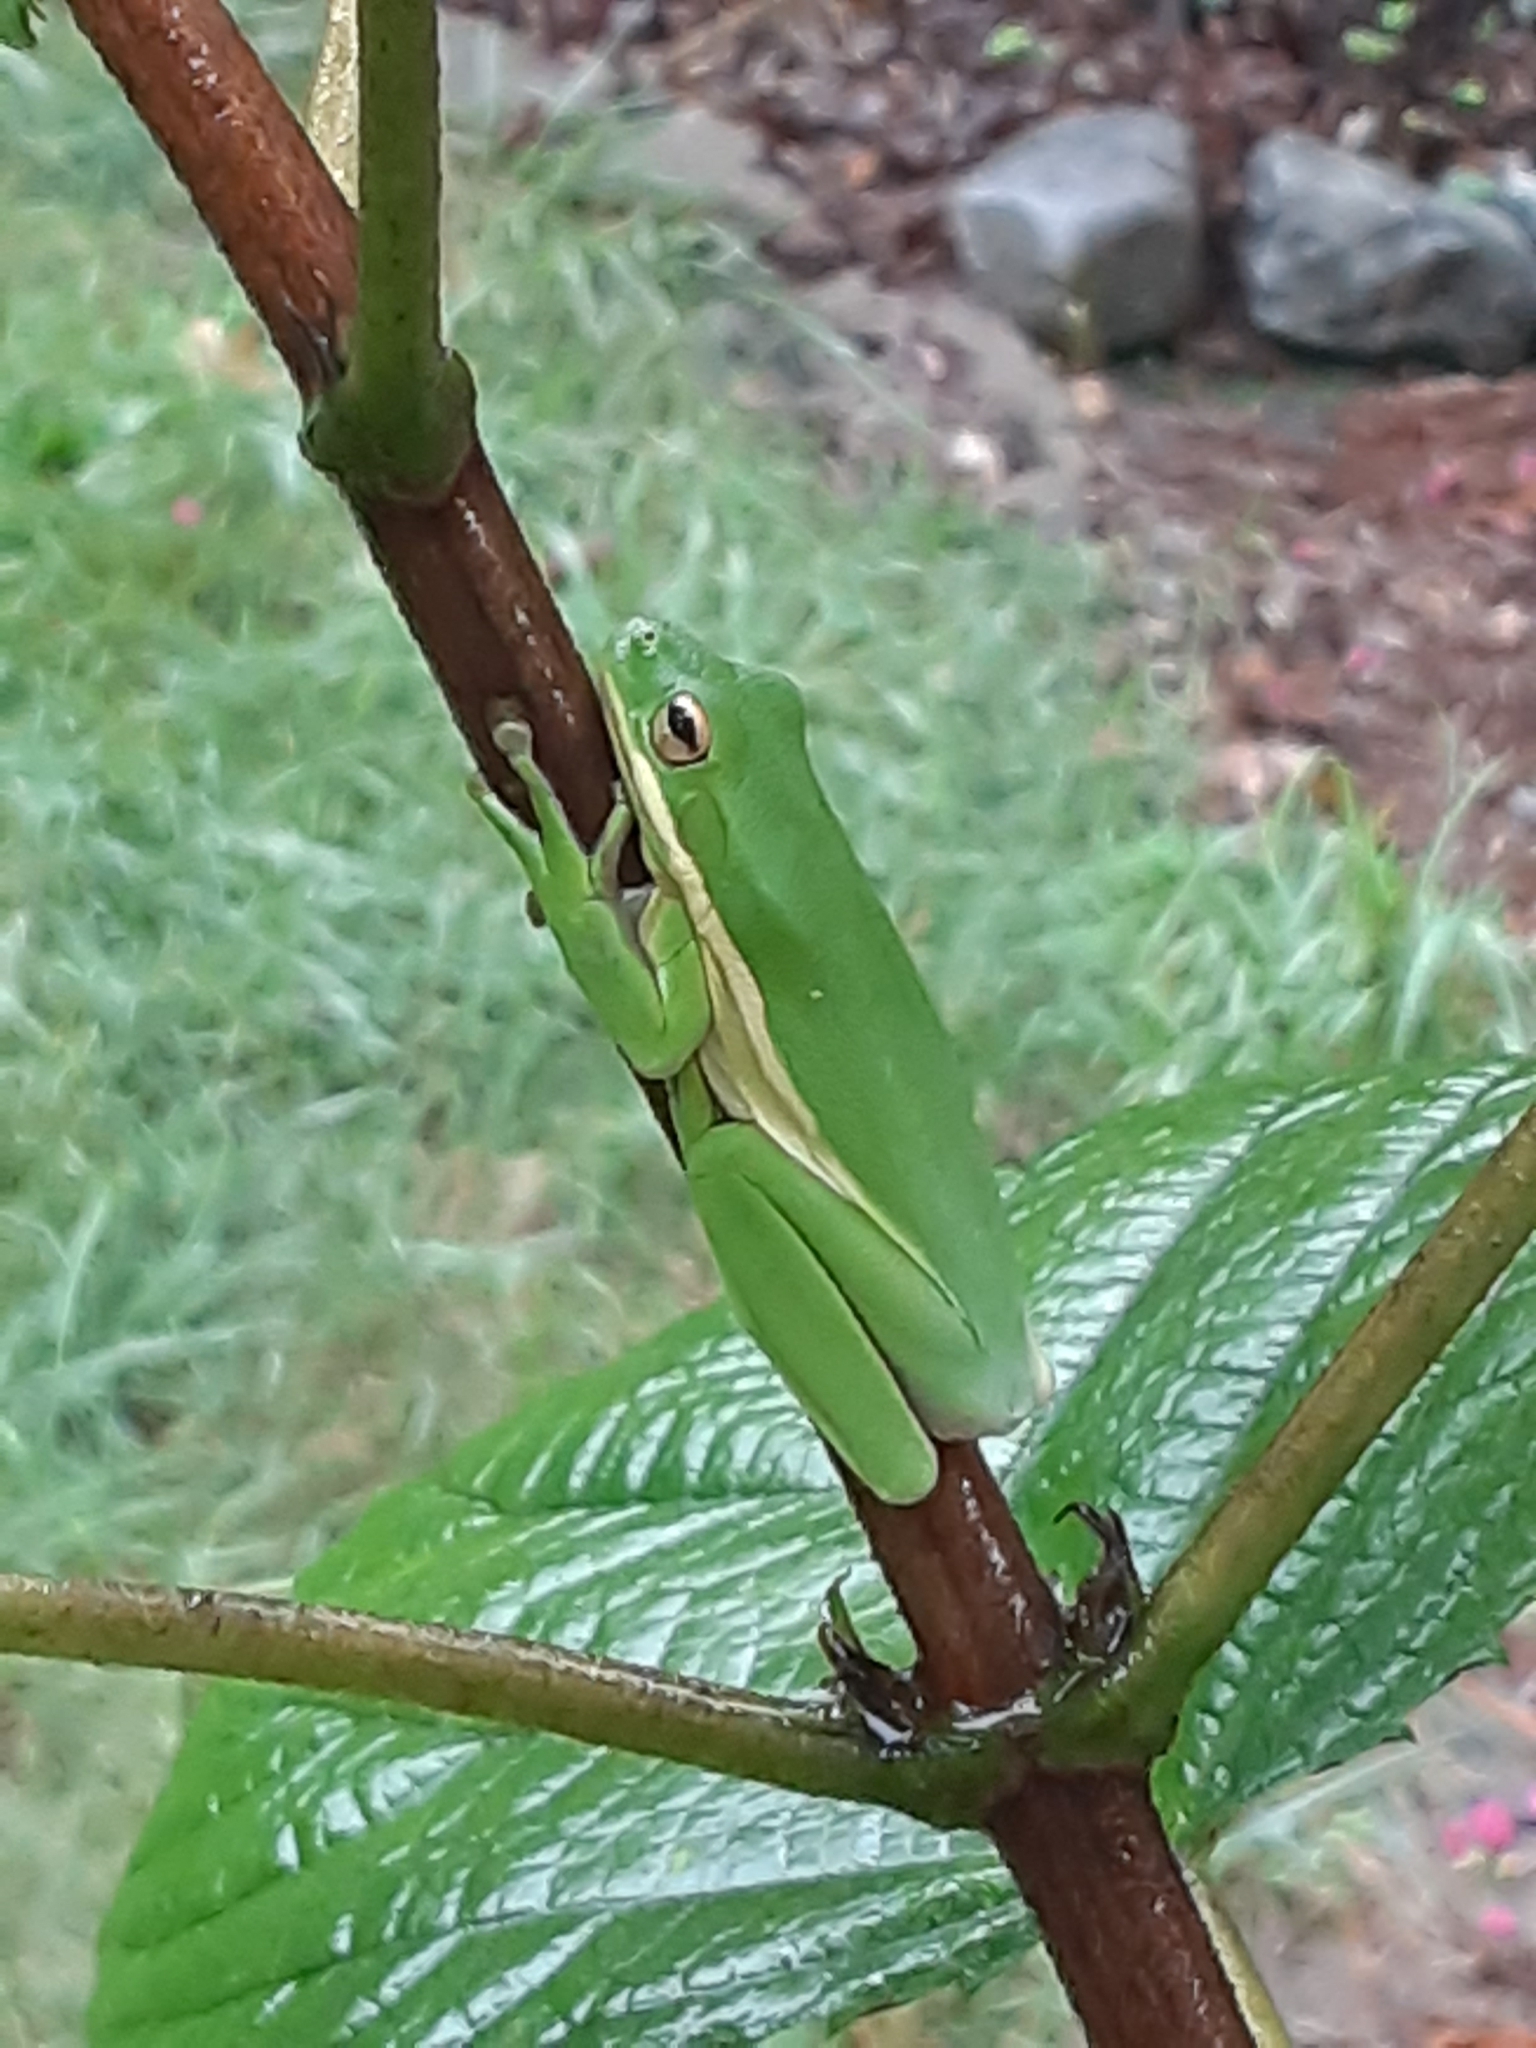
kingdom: Animalia
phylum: Chordata
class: Amphibia
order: Anura
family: Hylidae
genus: Dryophytes
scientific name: Dryophytes cinereus
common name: Green treefrog
